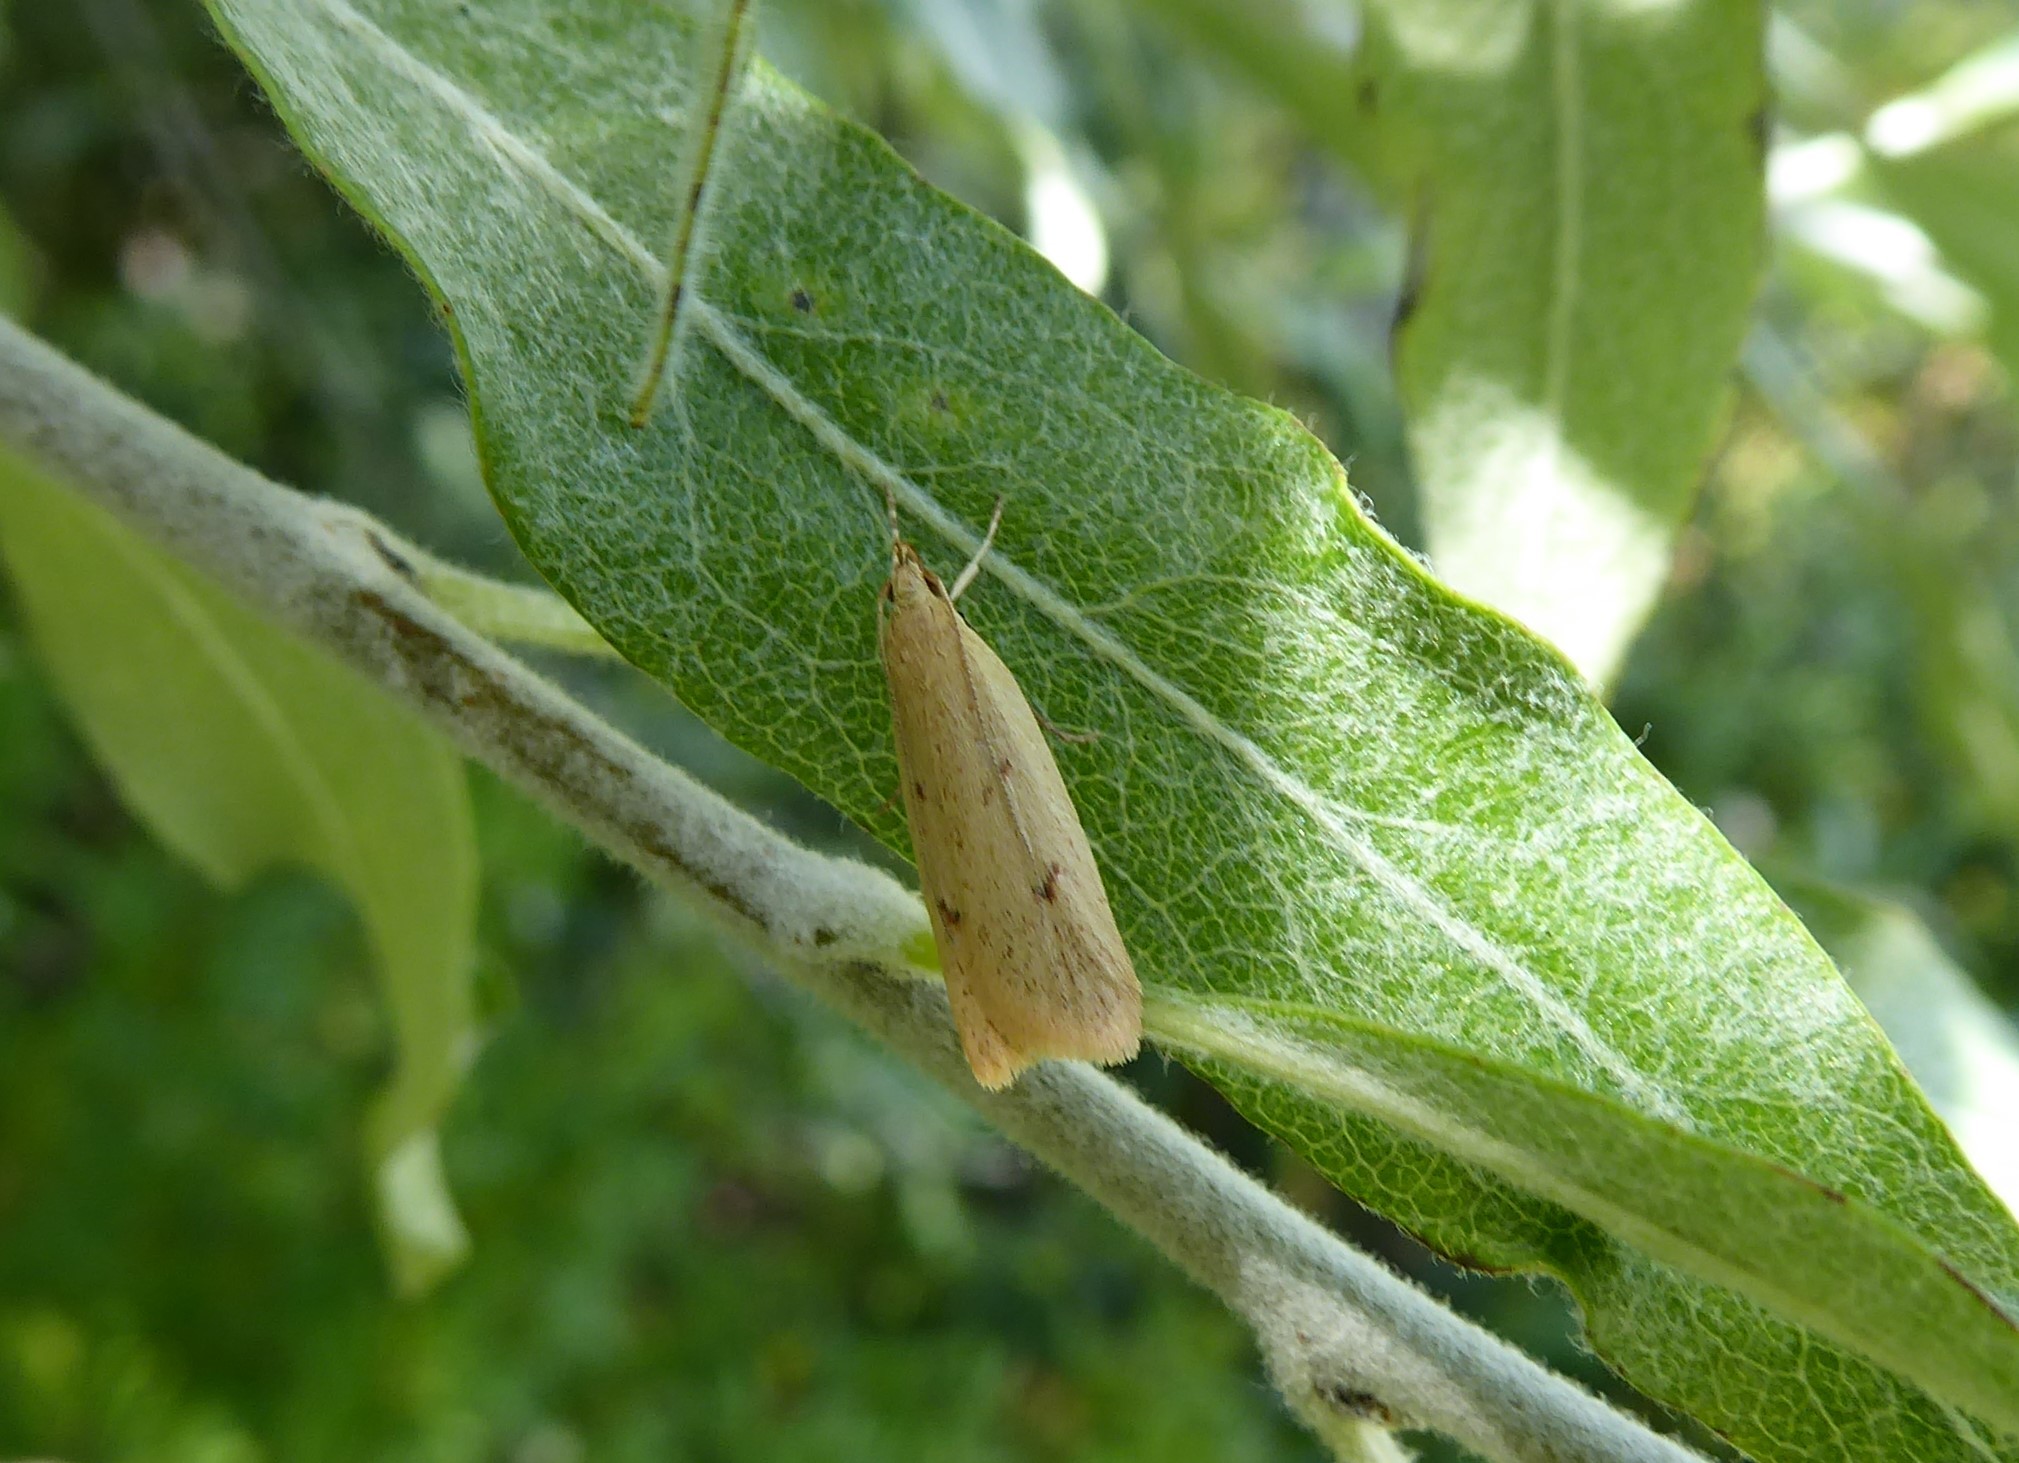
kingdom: Animalia
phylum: Arthropoda
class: Insecta
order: Lepidoptera
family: Oecophoridae
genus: Gymnobathra
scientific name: Gymnobathra sarcoxantha
